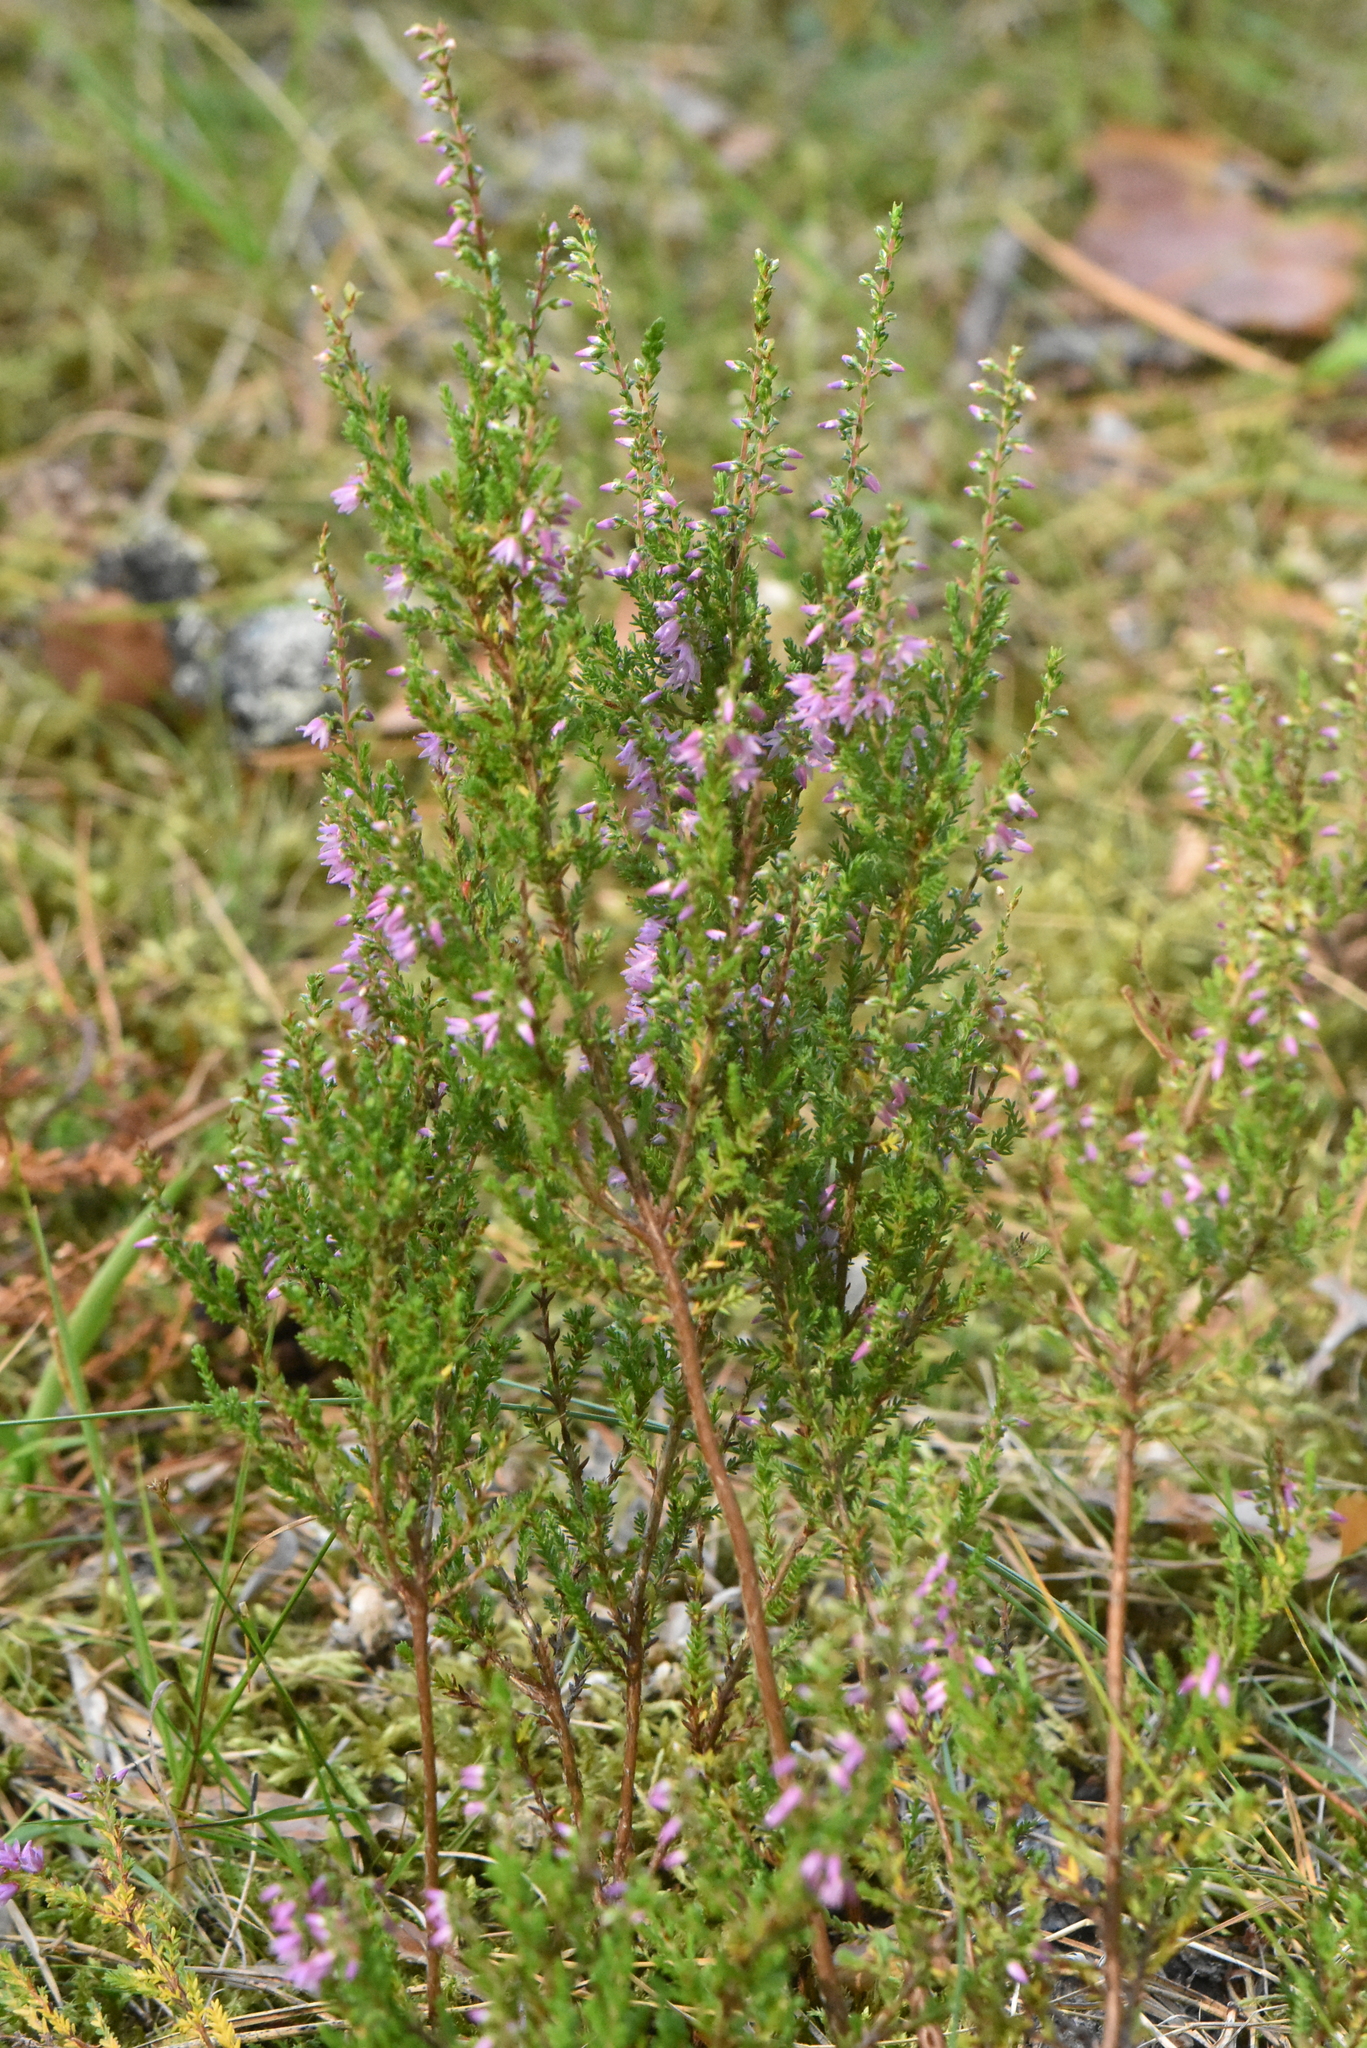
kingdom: Plantae
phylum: Tracheophyta
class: Magnoliopsida
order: Ericales
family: Ericaceae
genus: Calluna
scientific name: Calluna vulgaris
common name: Heather
